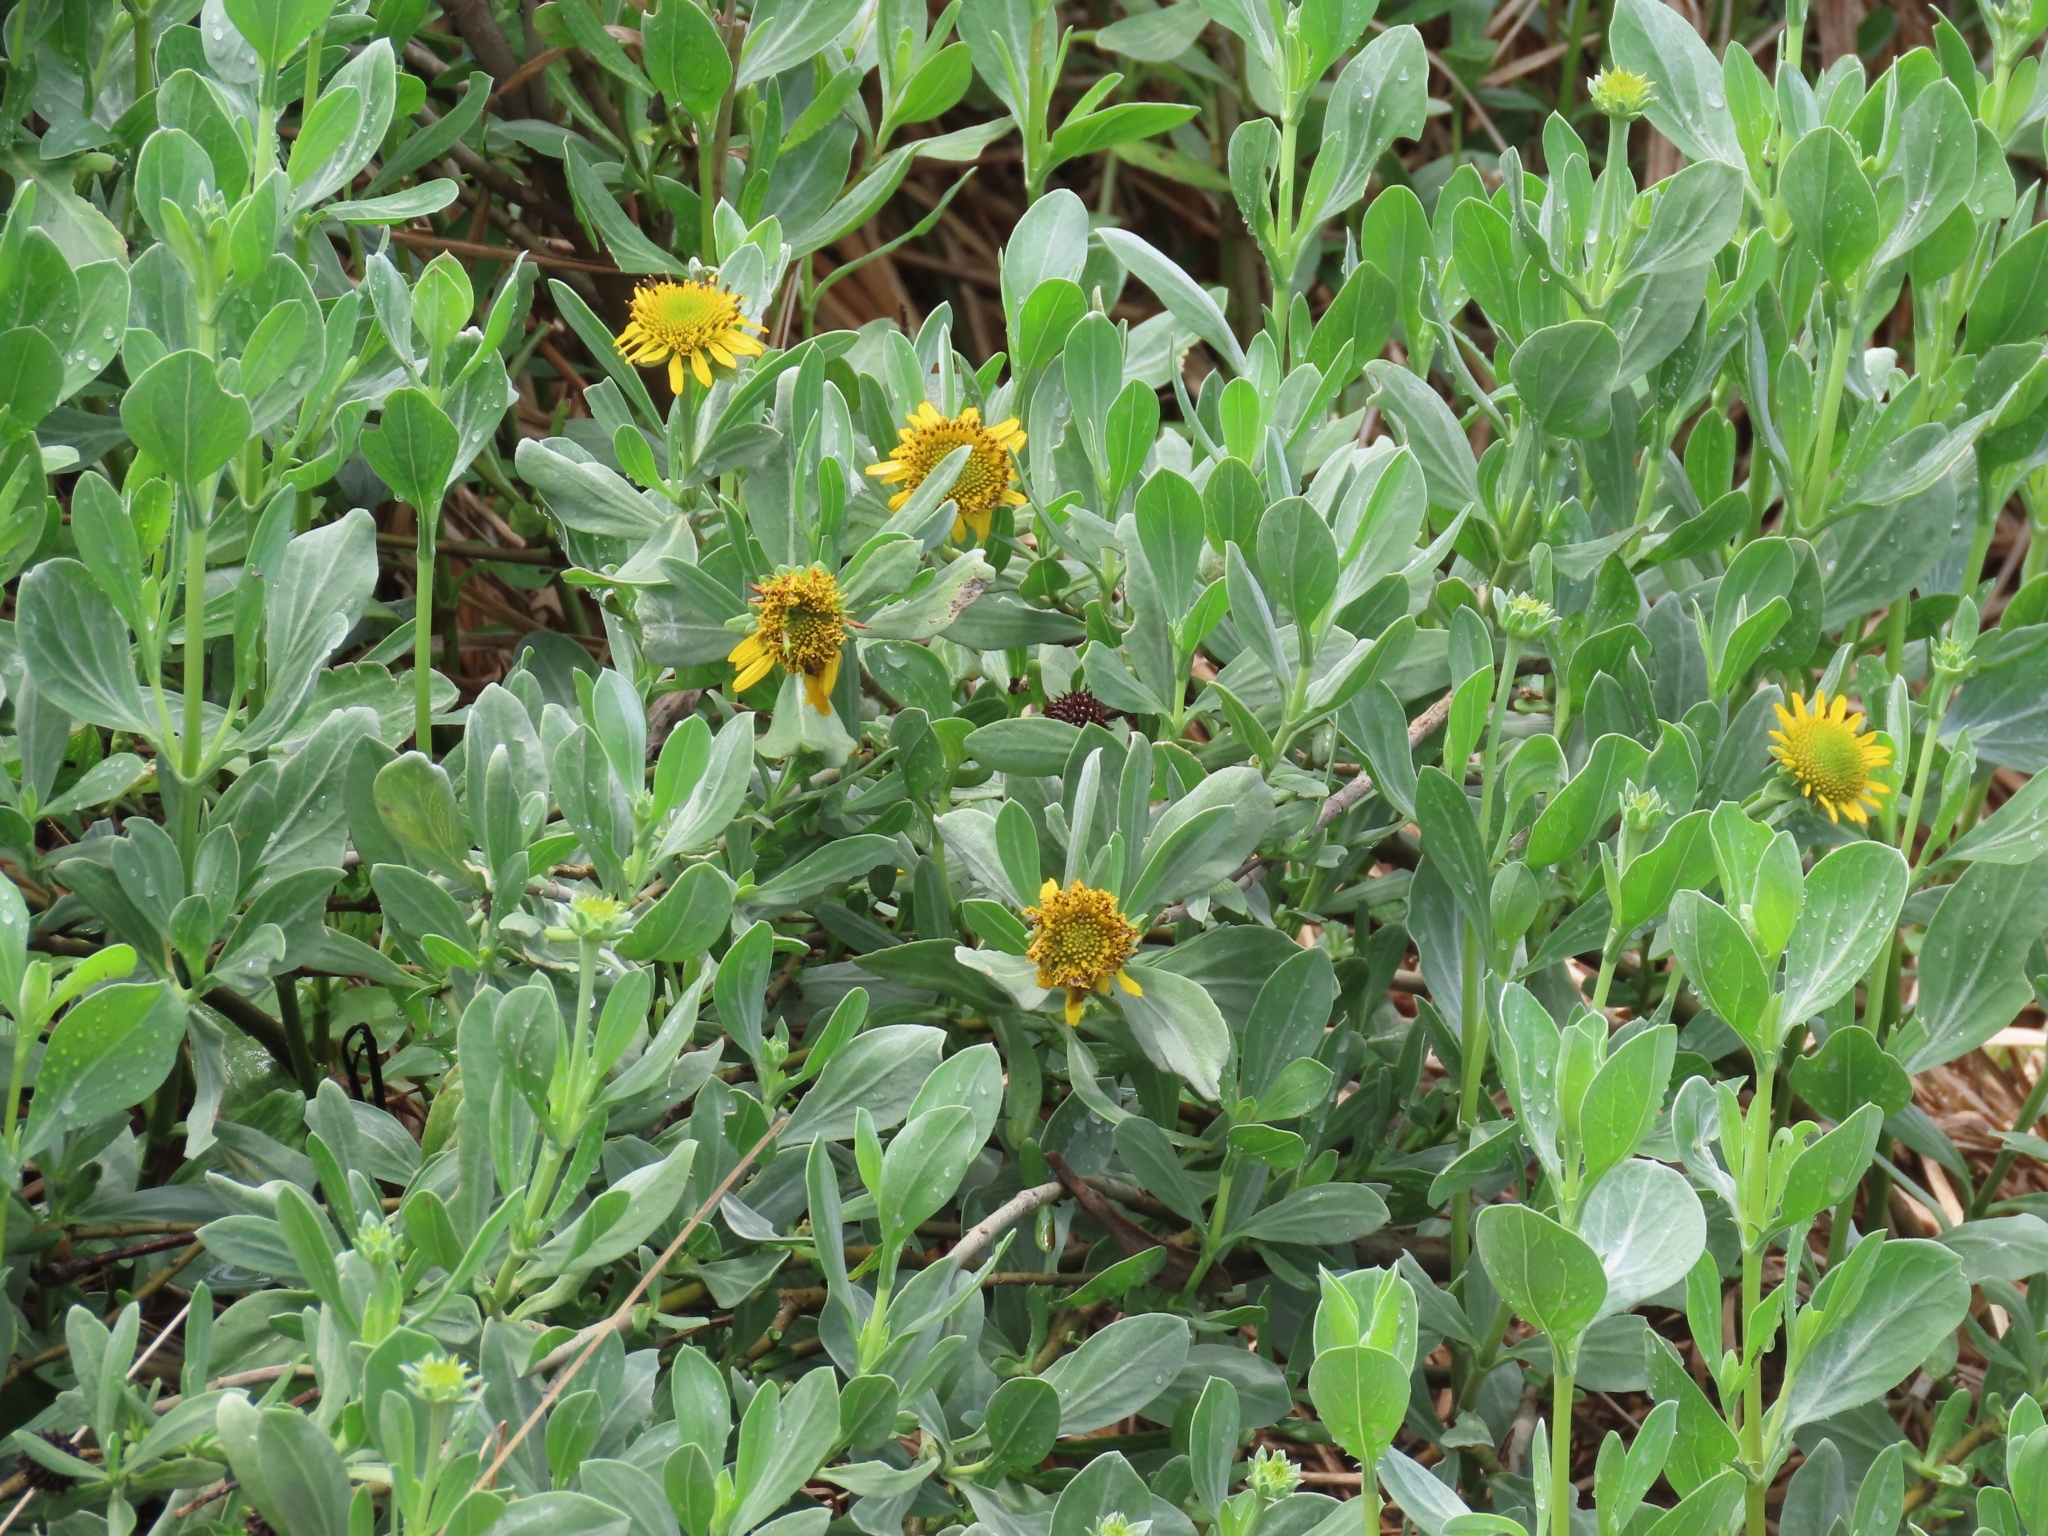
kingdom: Plantae
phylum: Tracheophyta
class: Magnoliopsida
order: Asterales
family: Asteraceae
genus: Borrichia
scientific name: Borrichia frutescens
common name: Sea oxeye
